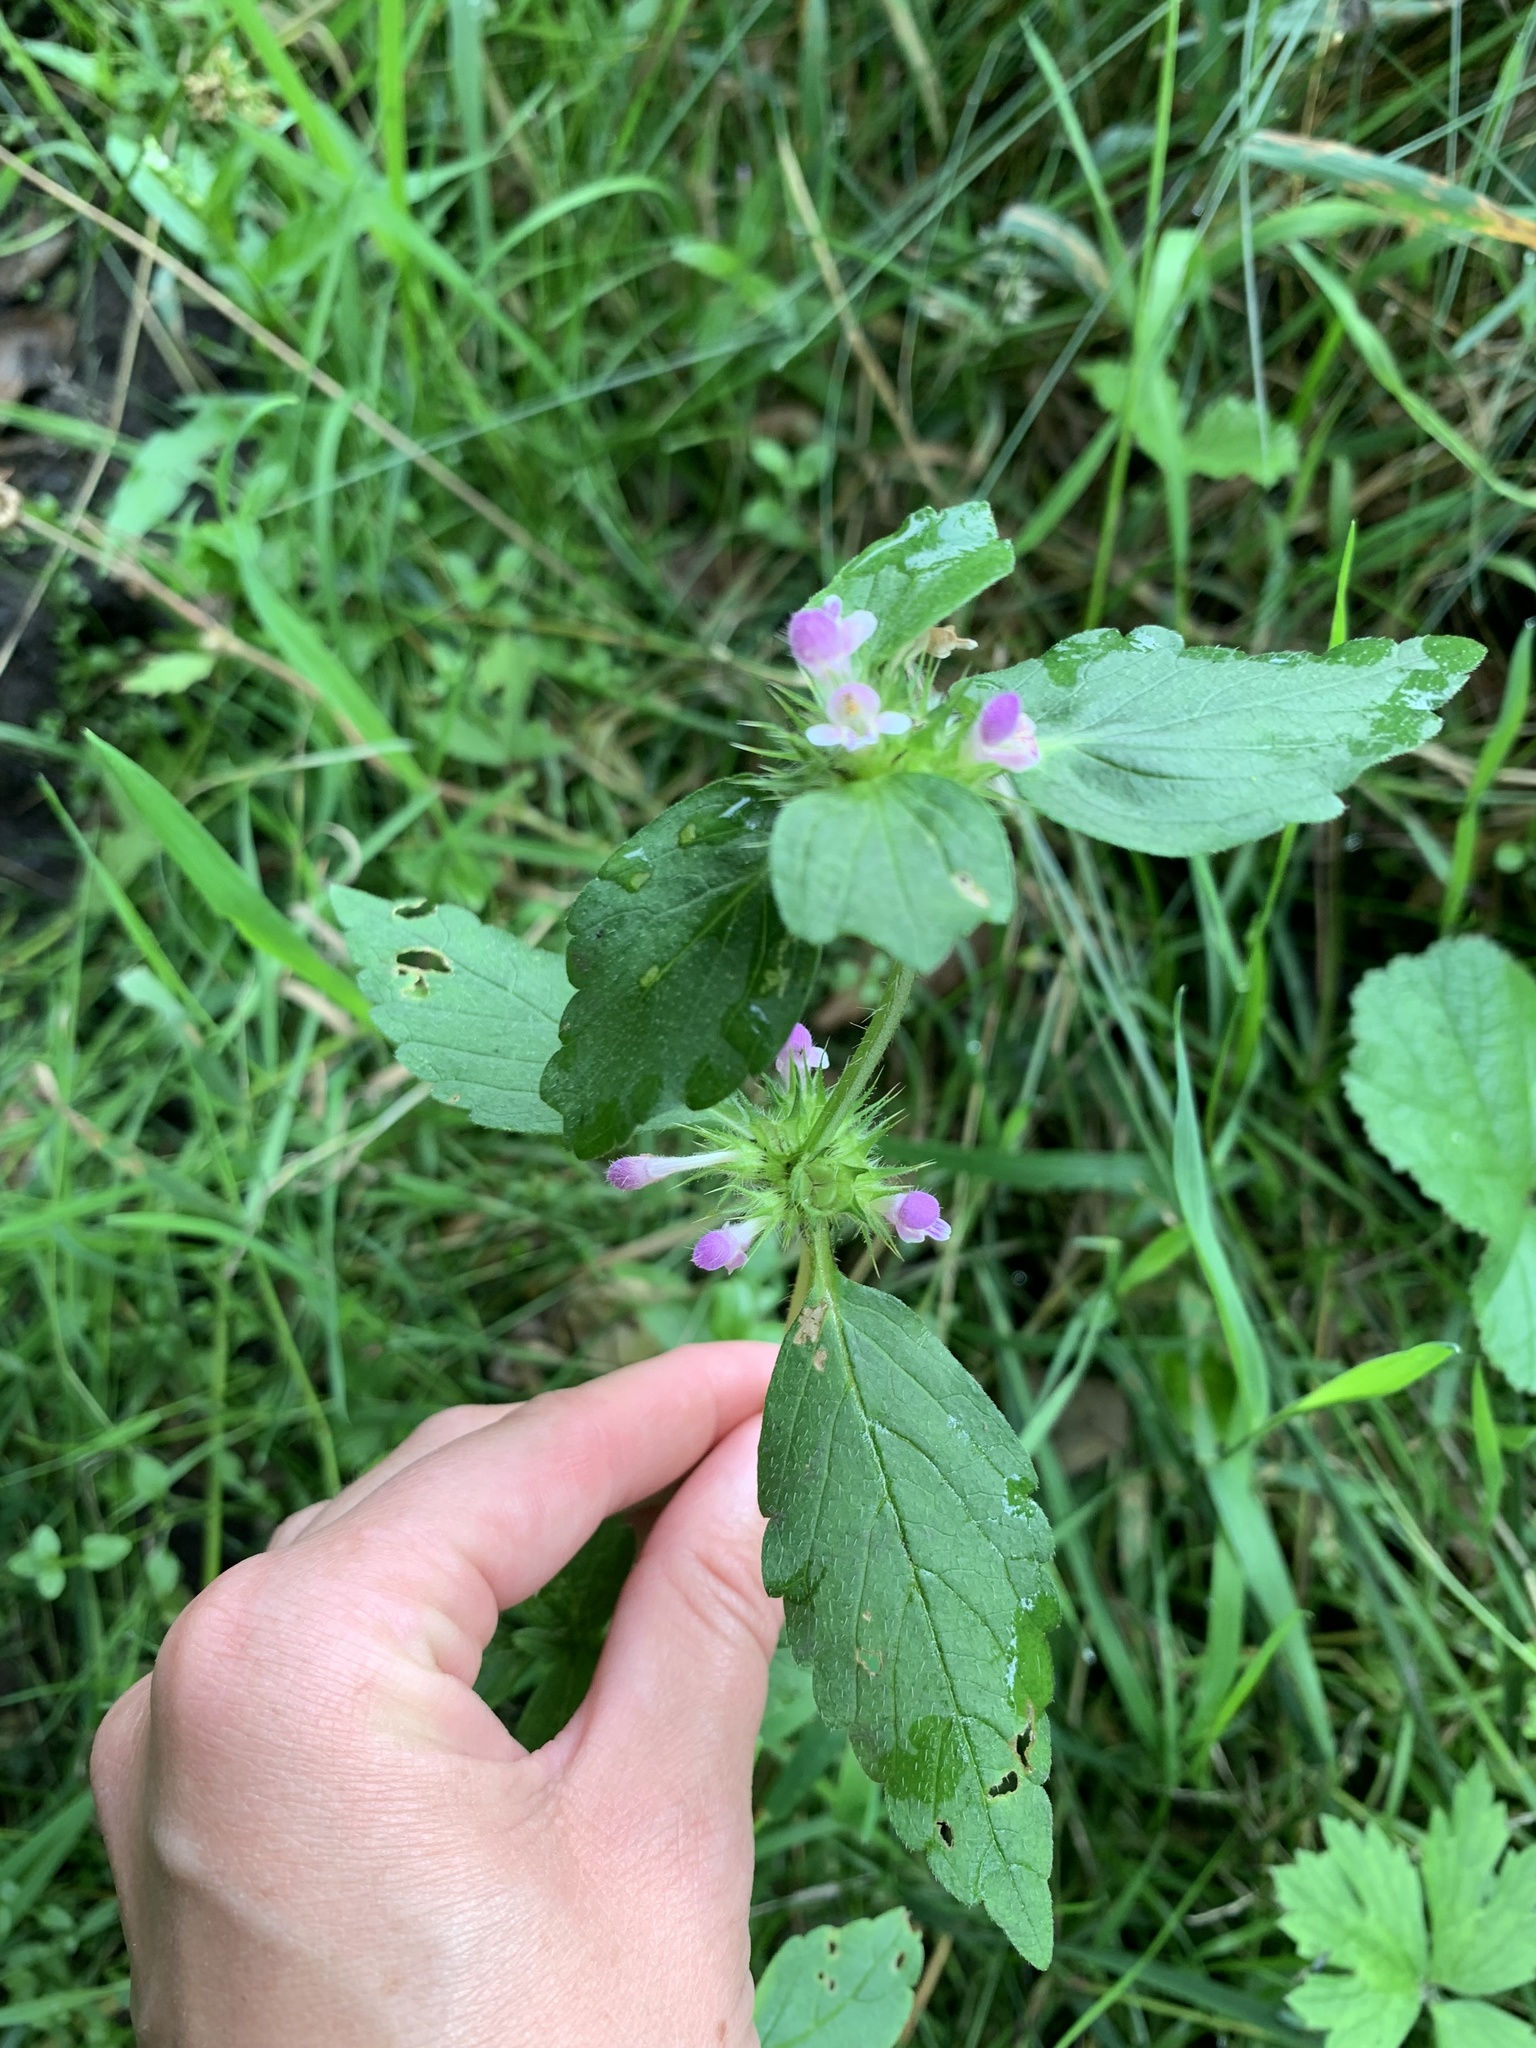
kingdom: Plantae
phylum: Tracheophyta
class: Magnoliopsida
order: Lamiales
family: Lamiaceae
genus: Galeopsis
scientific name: Galeopsis bifida
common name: Bifid hemp-nettle
